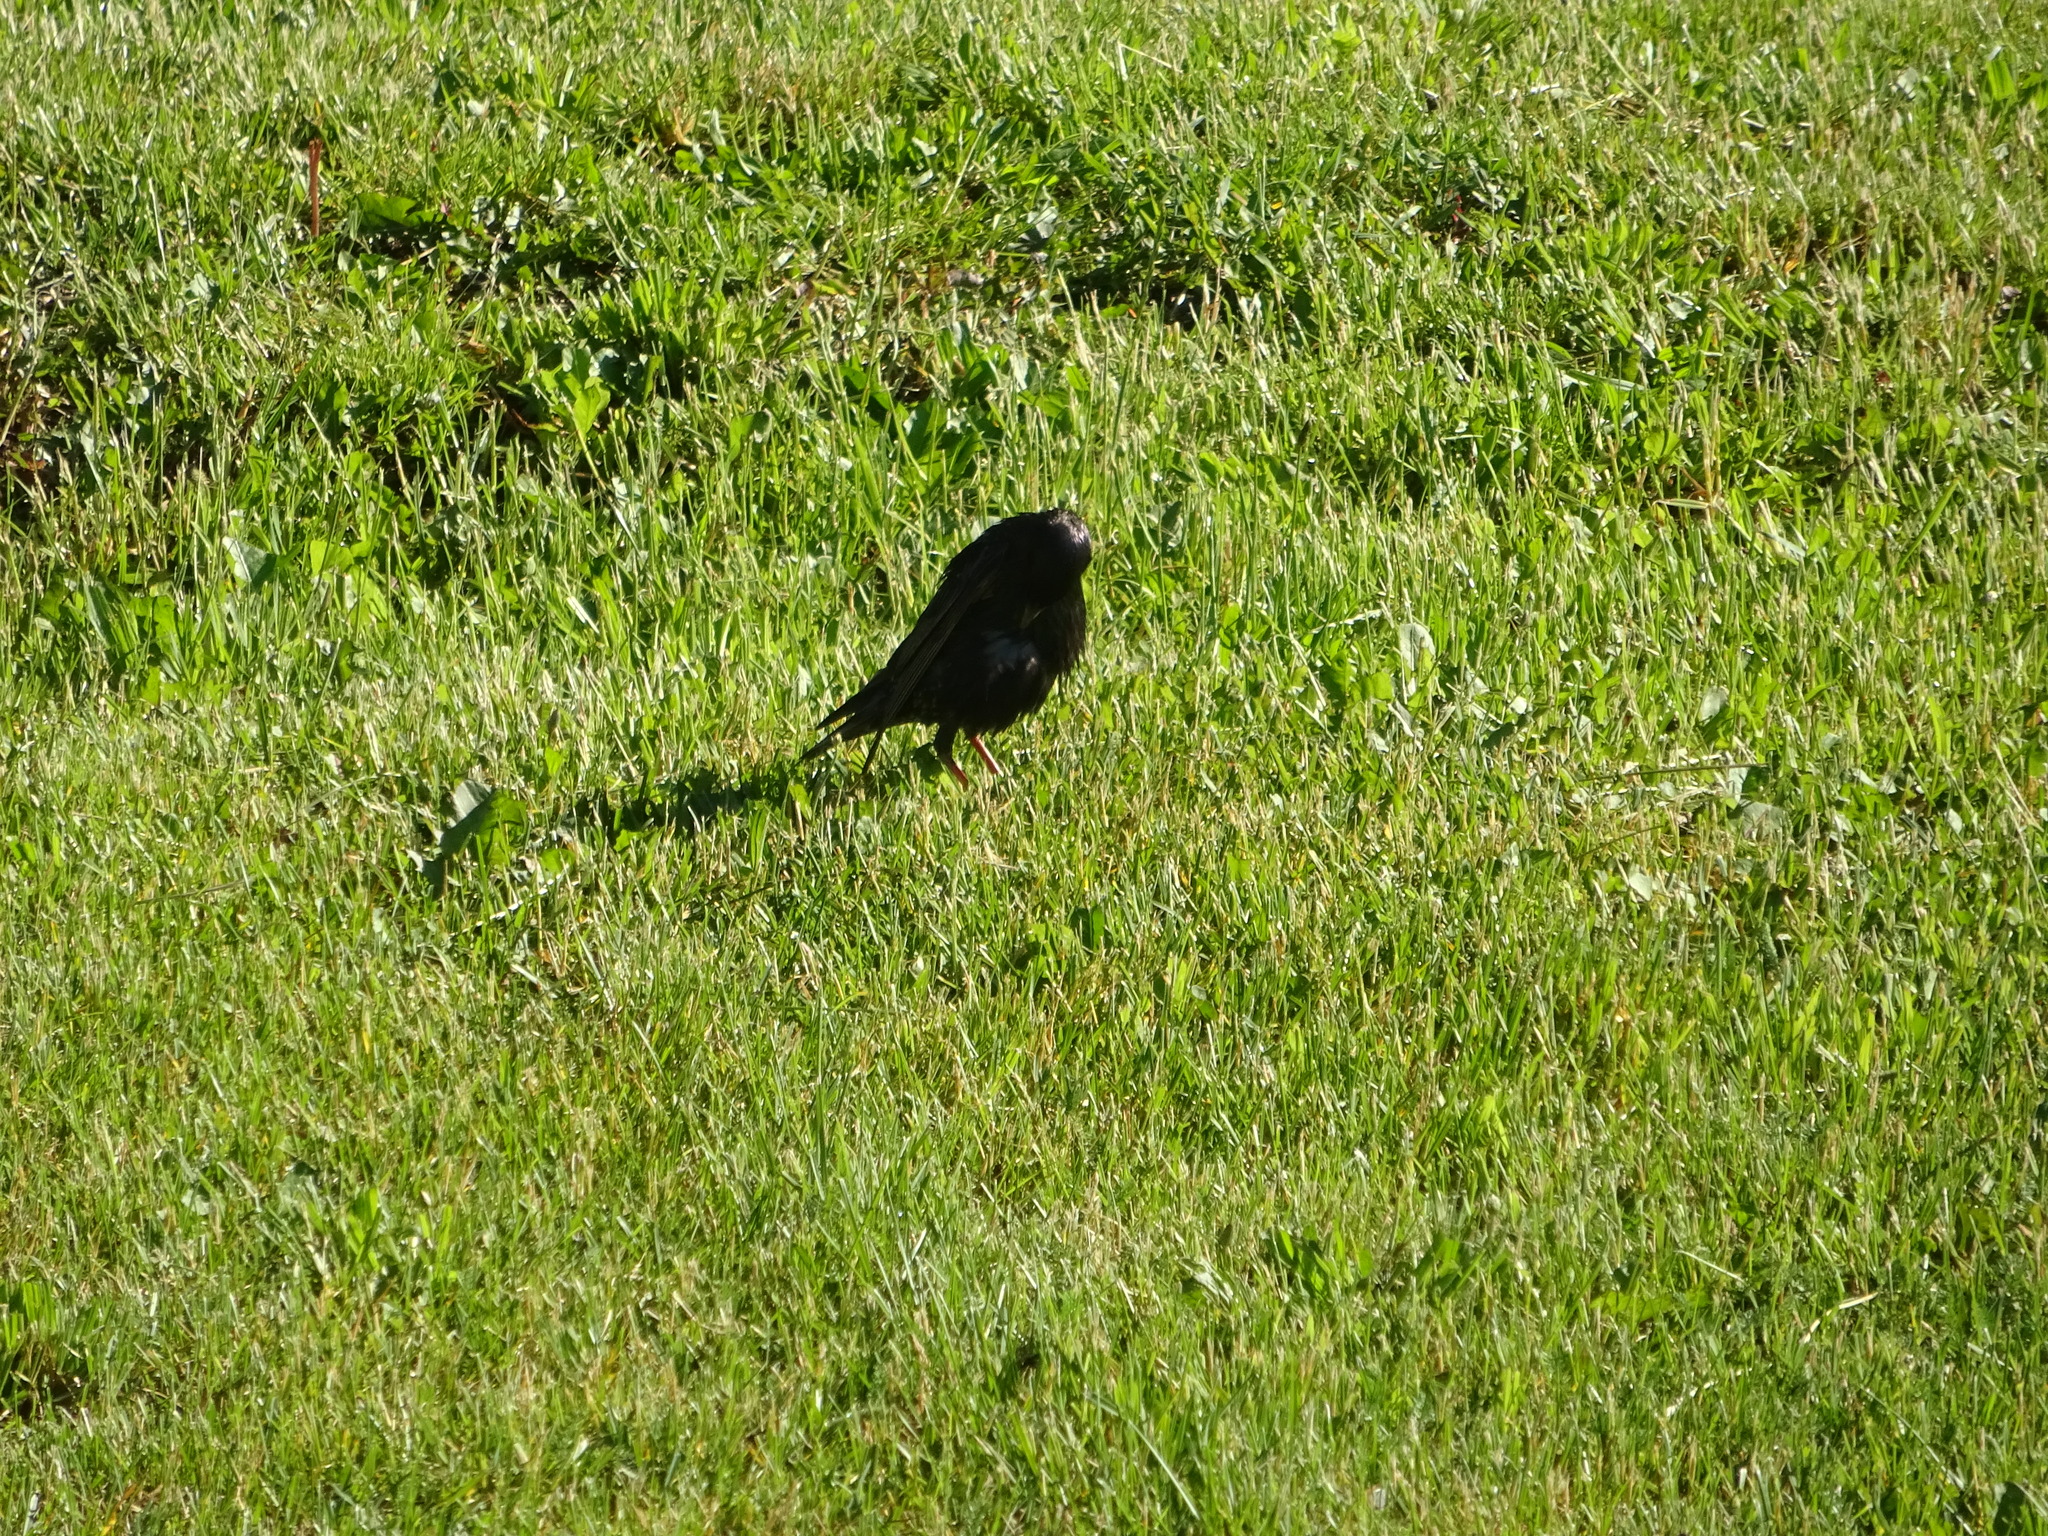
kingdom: Animalia
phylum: Chordata
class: Aves
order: Passeriformes
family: Sturnidae
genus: Sturnus
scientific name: Sturnus vulgaris
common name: Common starling
